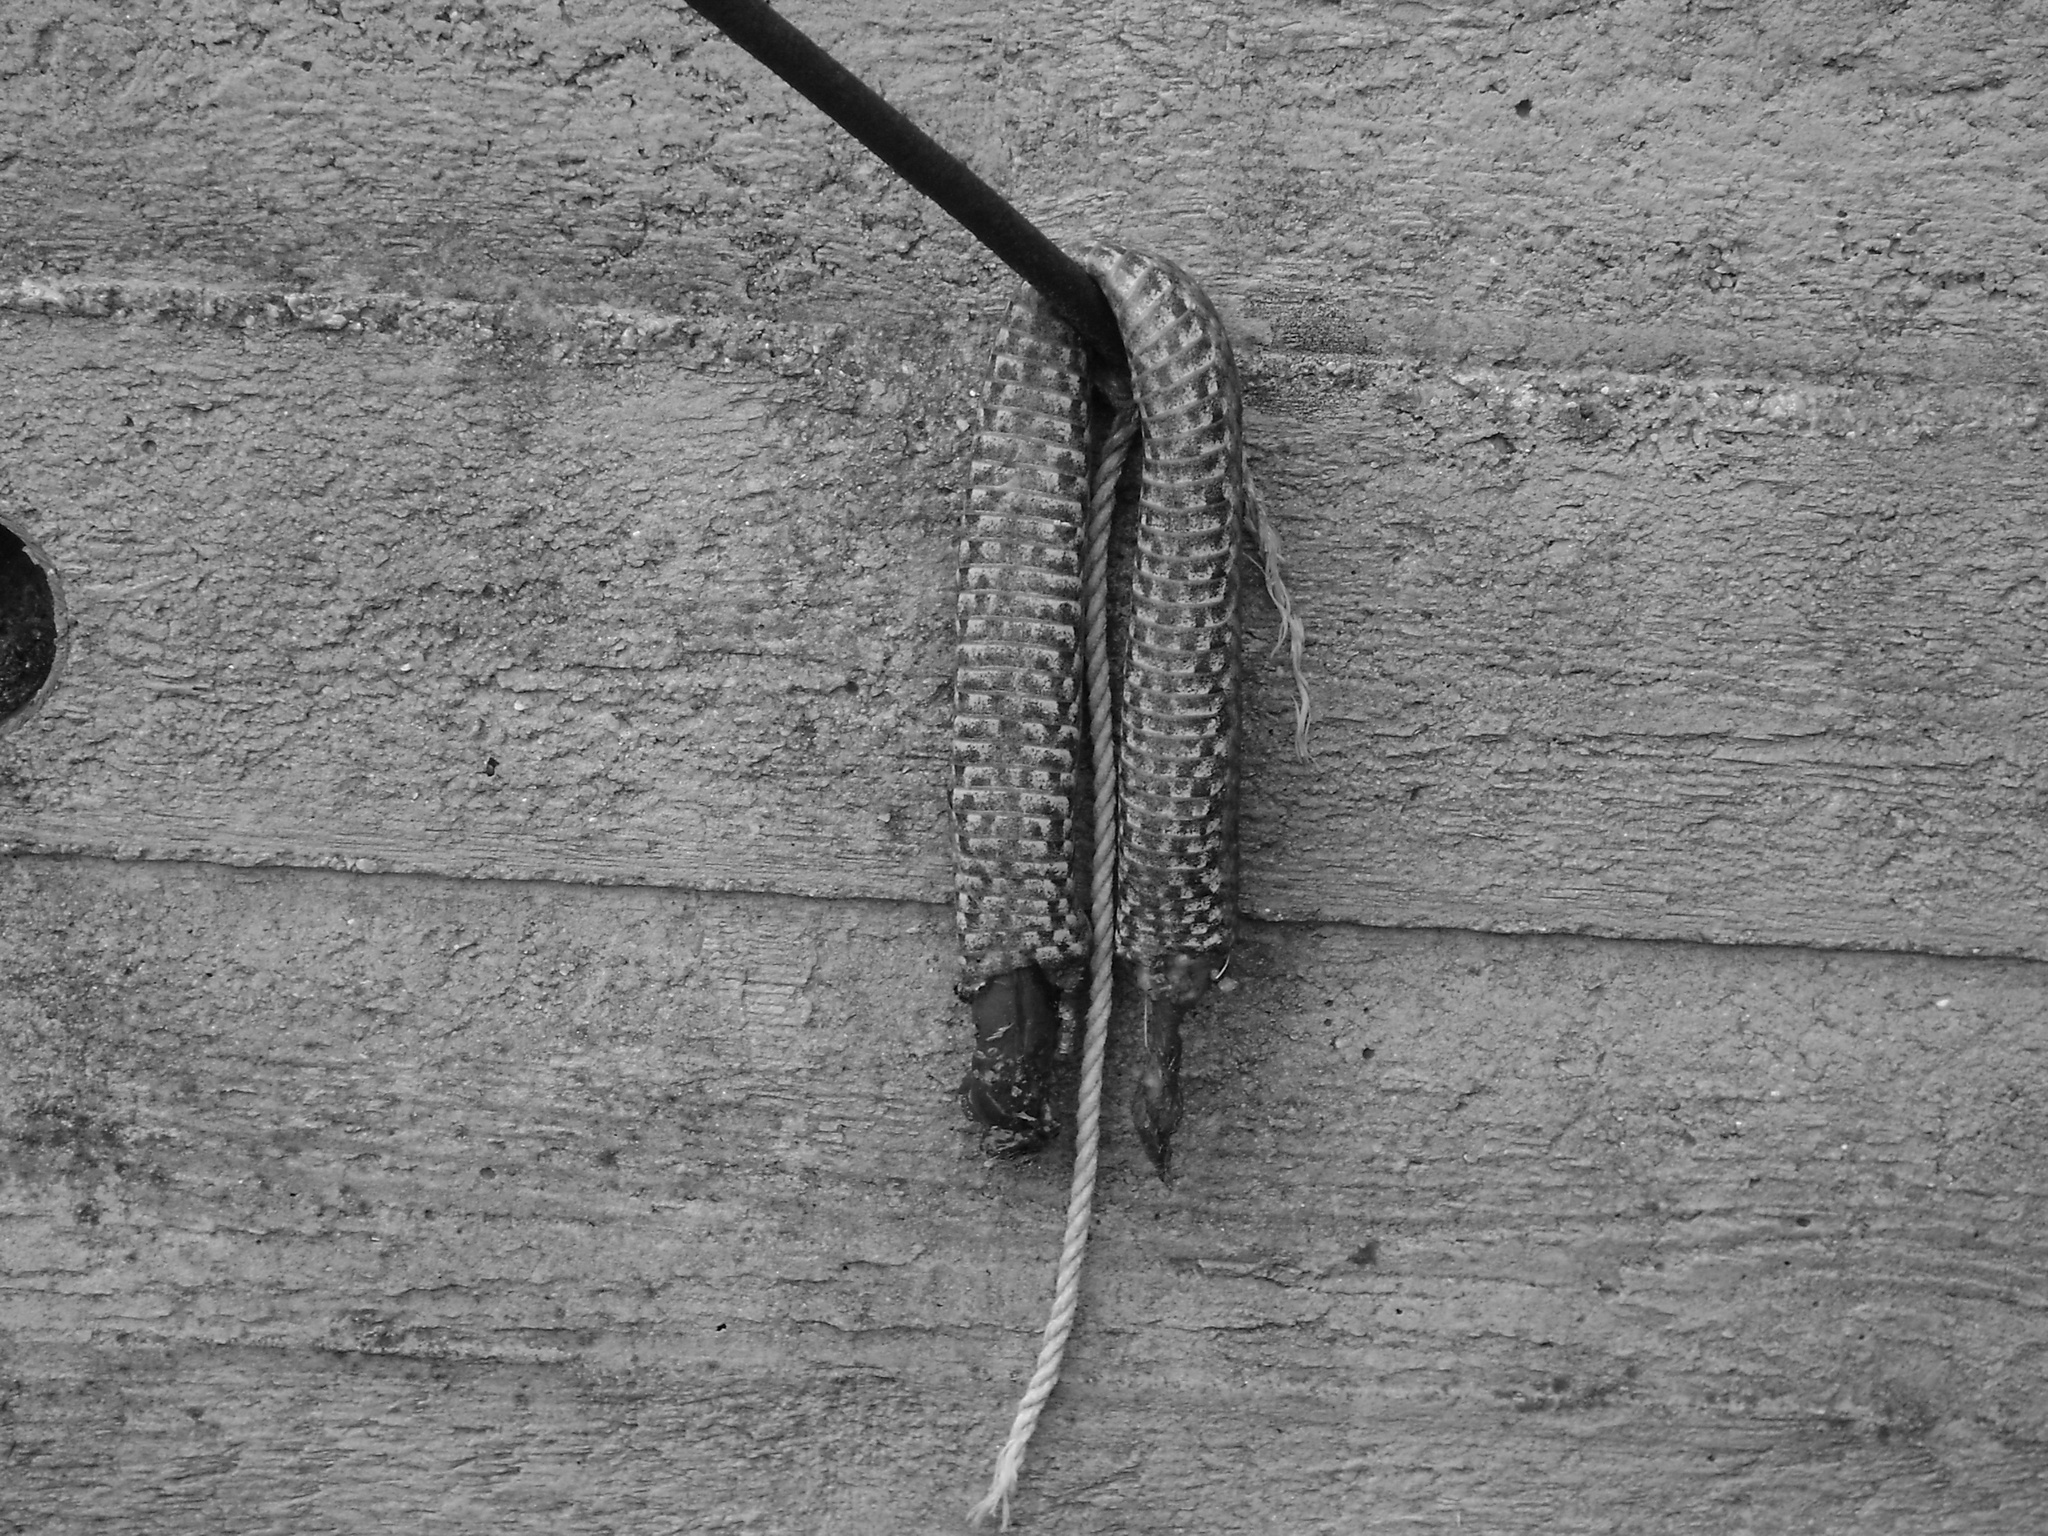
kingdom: Animalia
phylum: Chordata
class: Squamata
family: Viperidae
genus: Vipera
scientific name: Vipera ammodytes
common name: Sand viper
